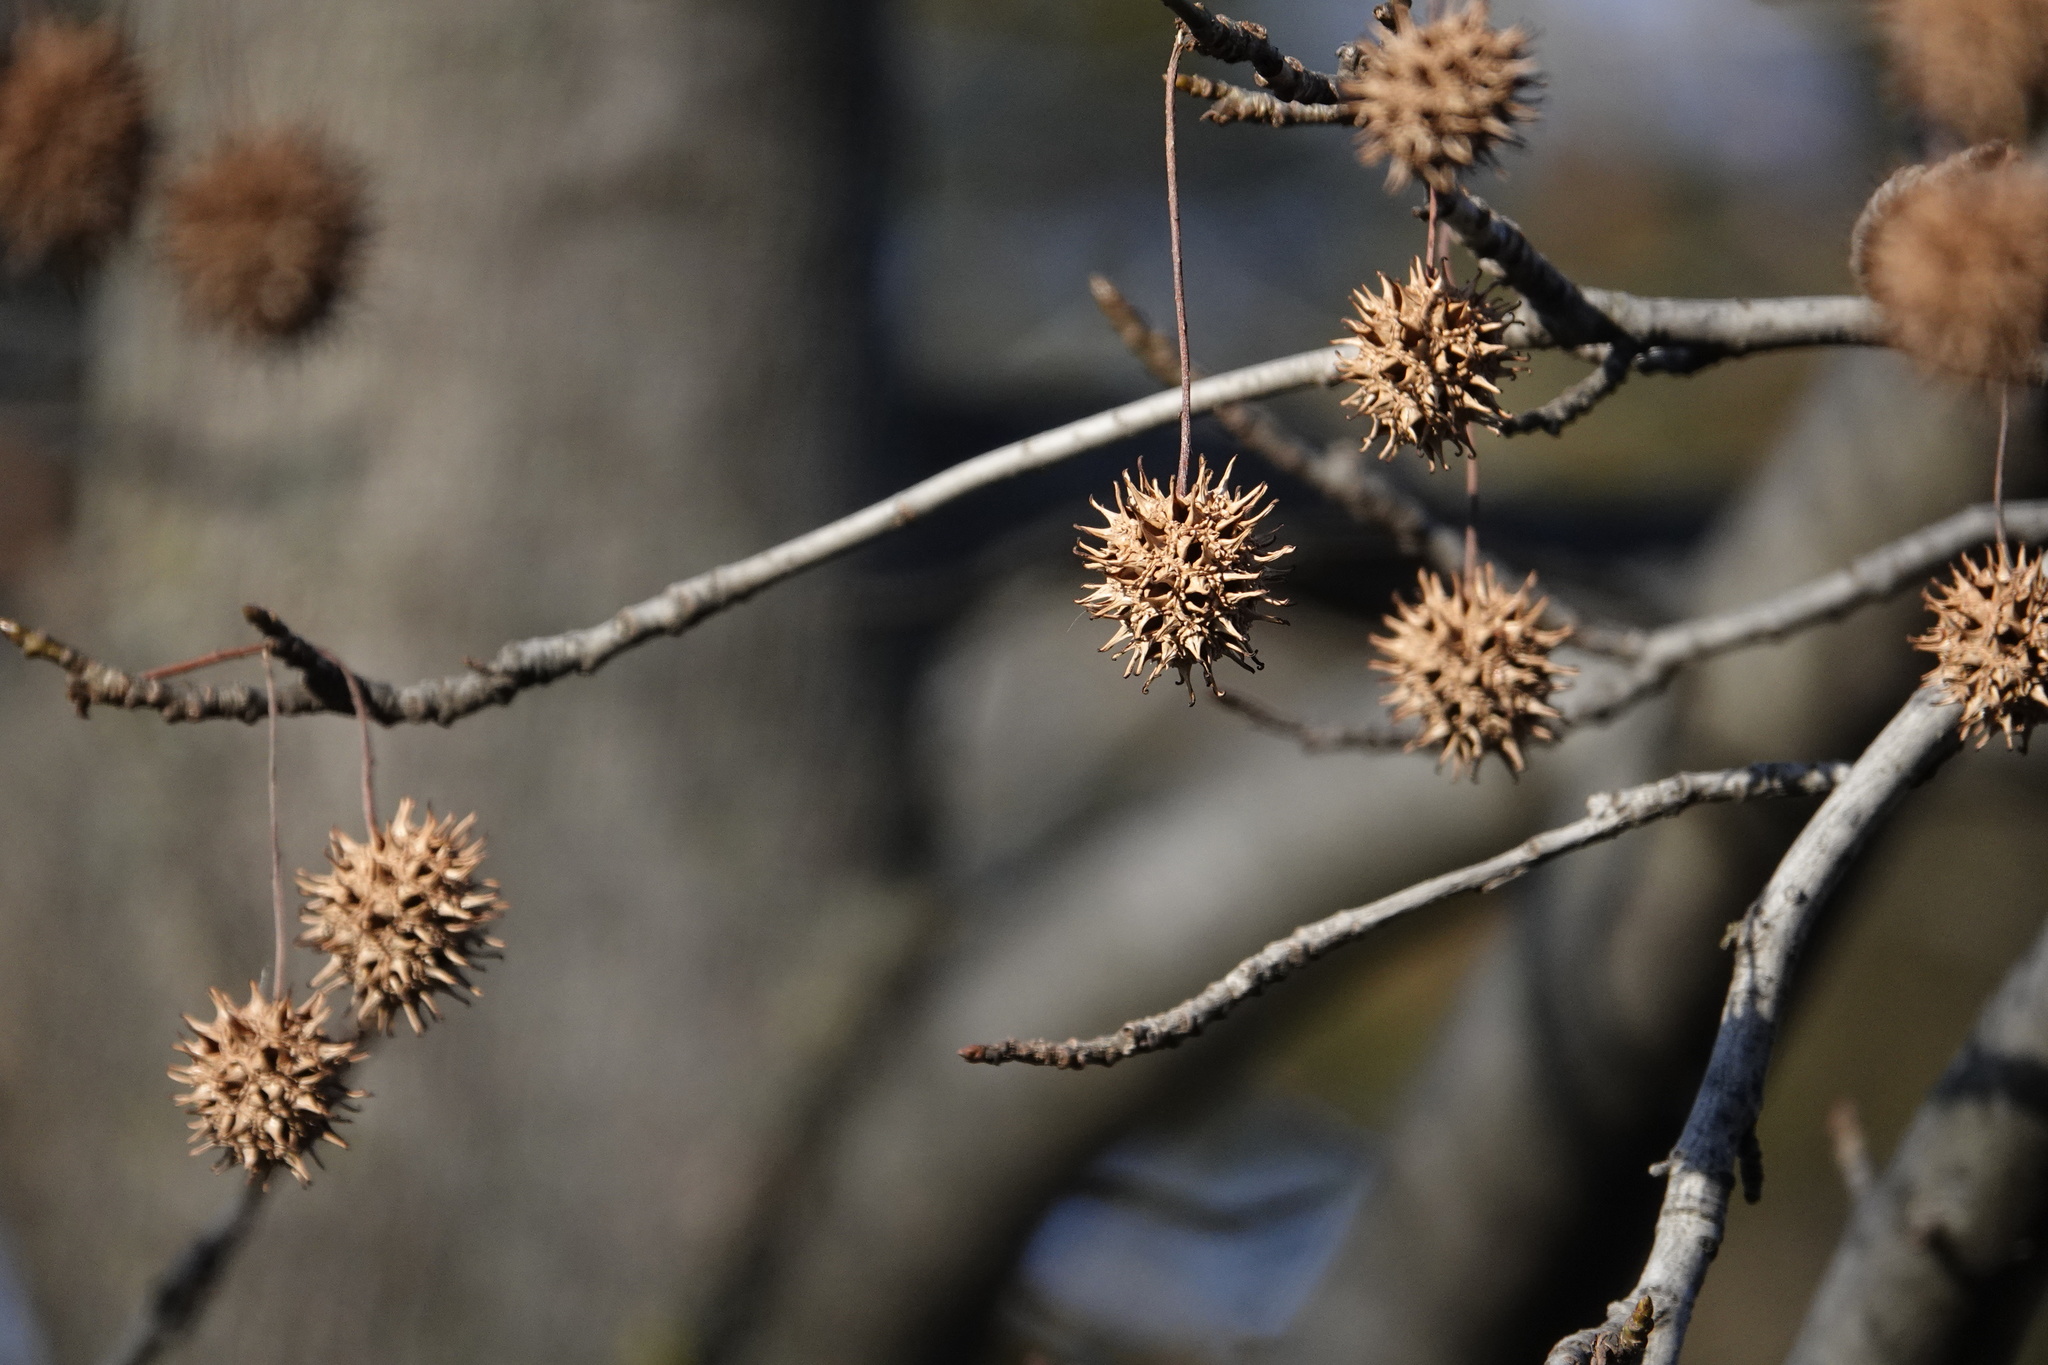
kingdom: Plantae
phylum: Tracheophyta
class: Magnoliopsida
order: Saxifragales
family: Altingiaceae
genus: Liquidambar
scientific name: Liquidambar styraciflua
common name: Sweet gum
